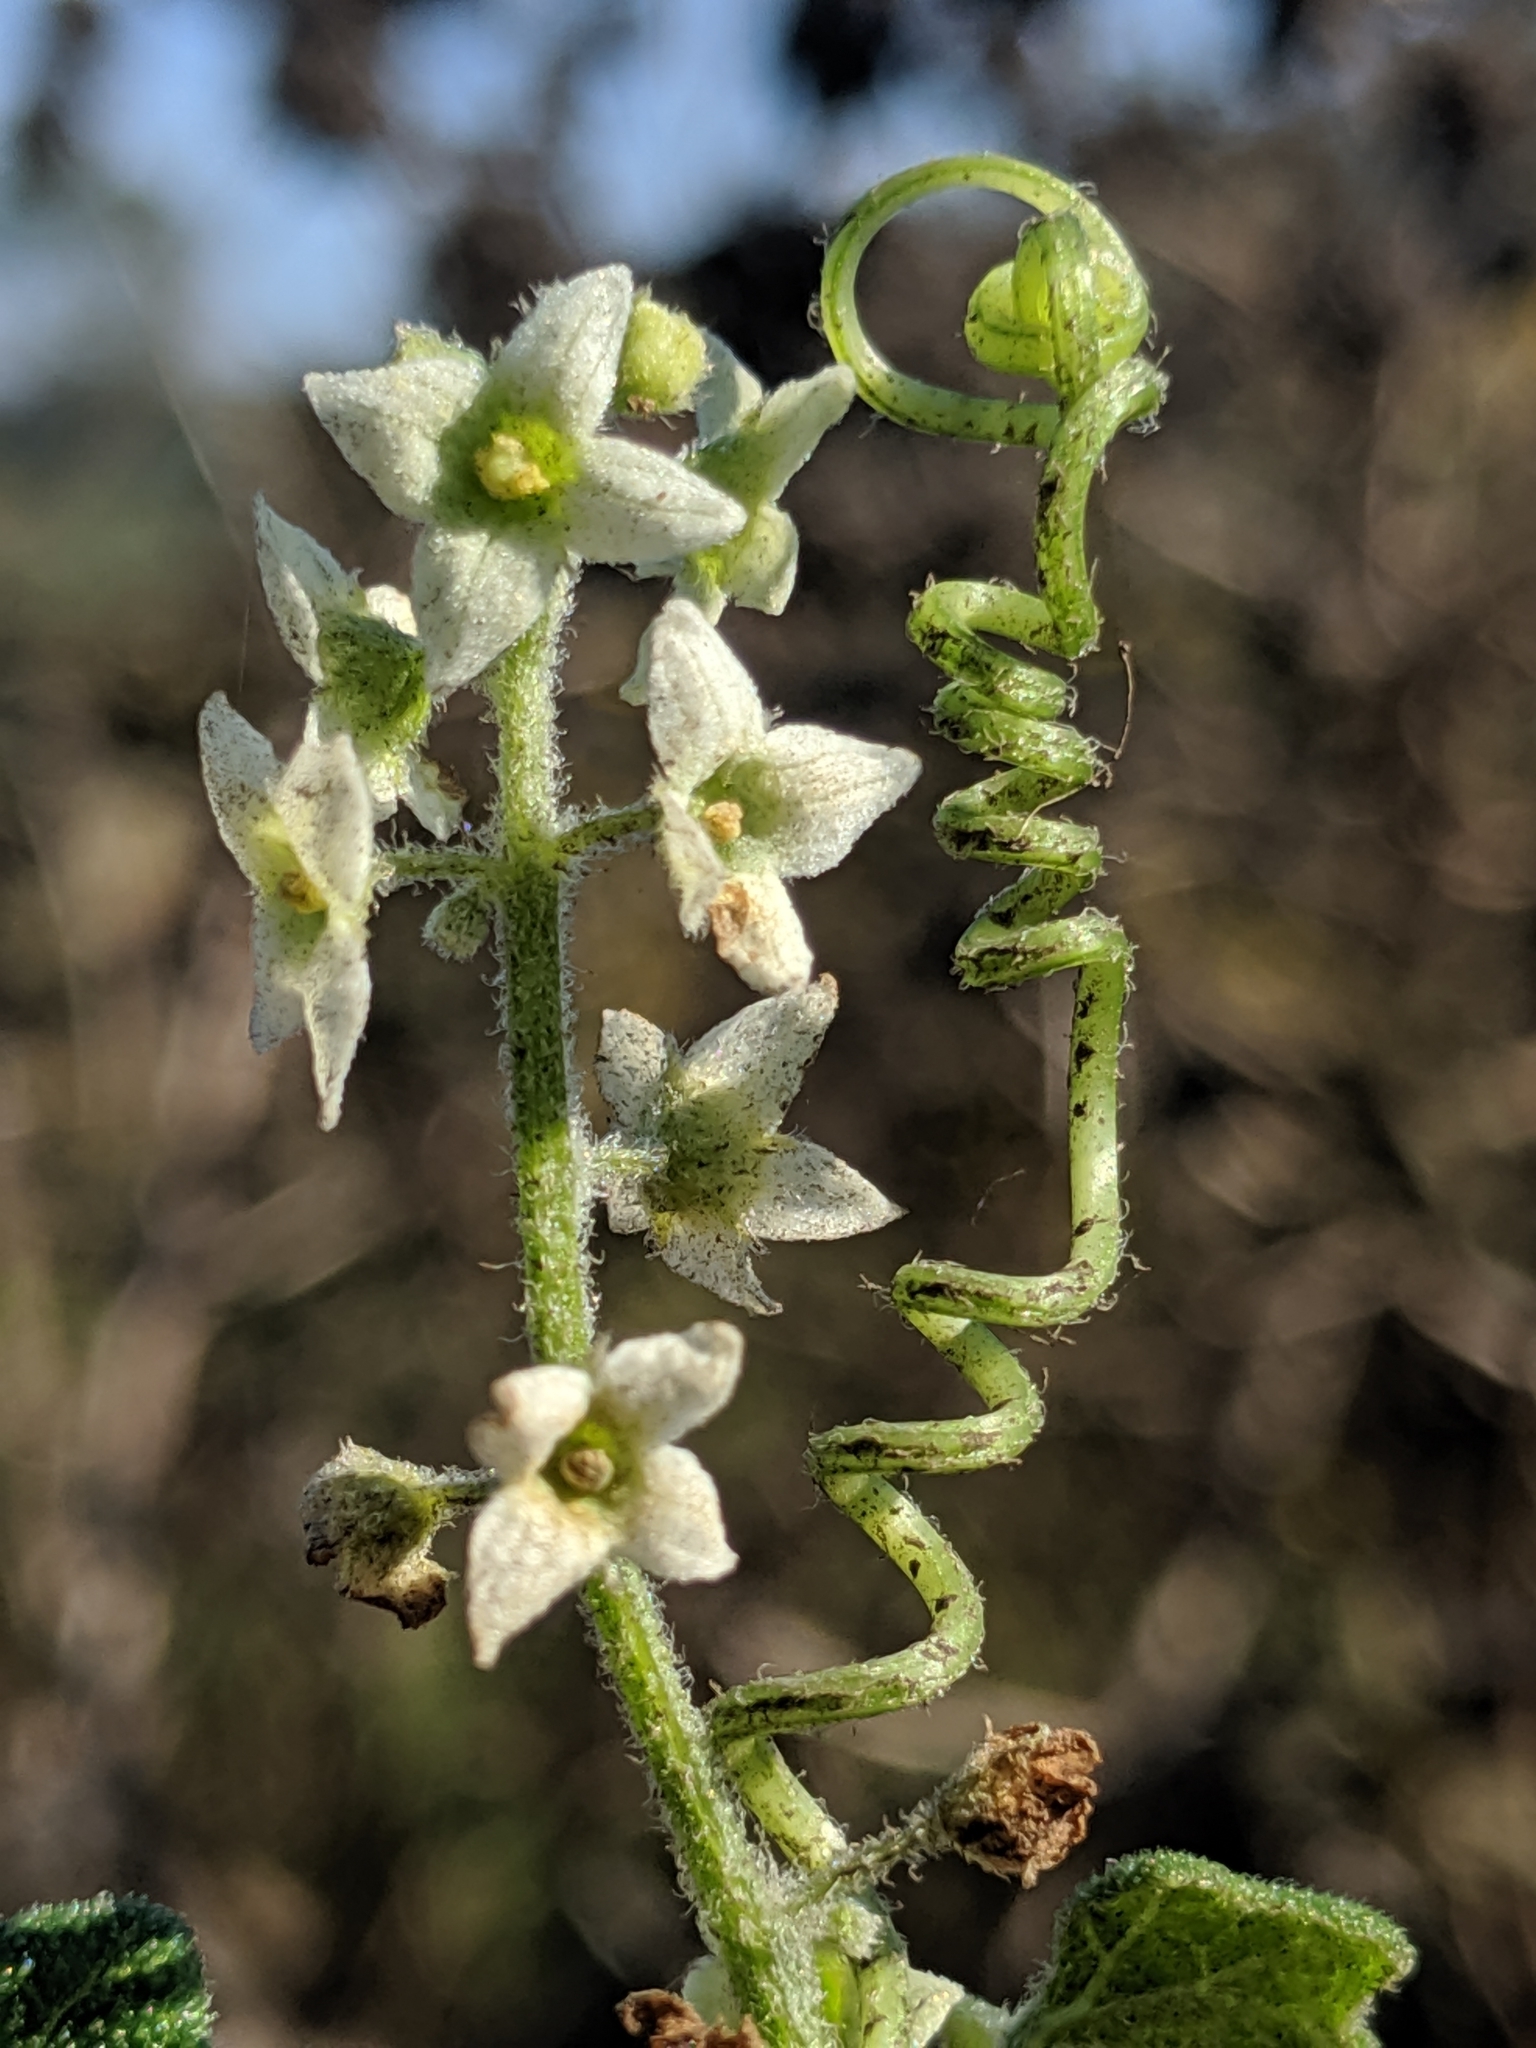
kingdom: Plantae
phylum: Tracheophyta
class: Magnoliopsida
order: Cucurbitales
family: Cucurbitaceae
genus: Marah
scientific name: Marah fabacea
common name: California manroot
